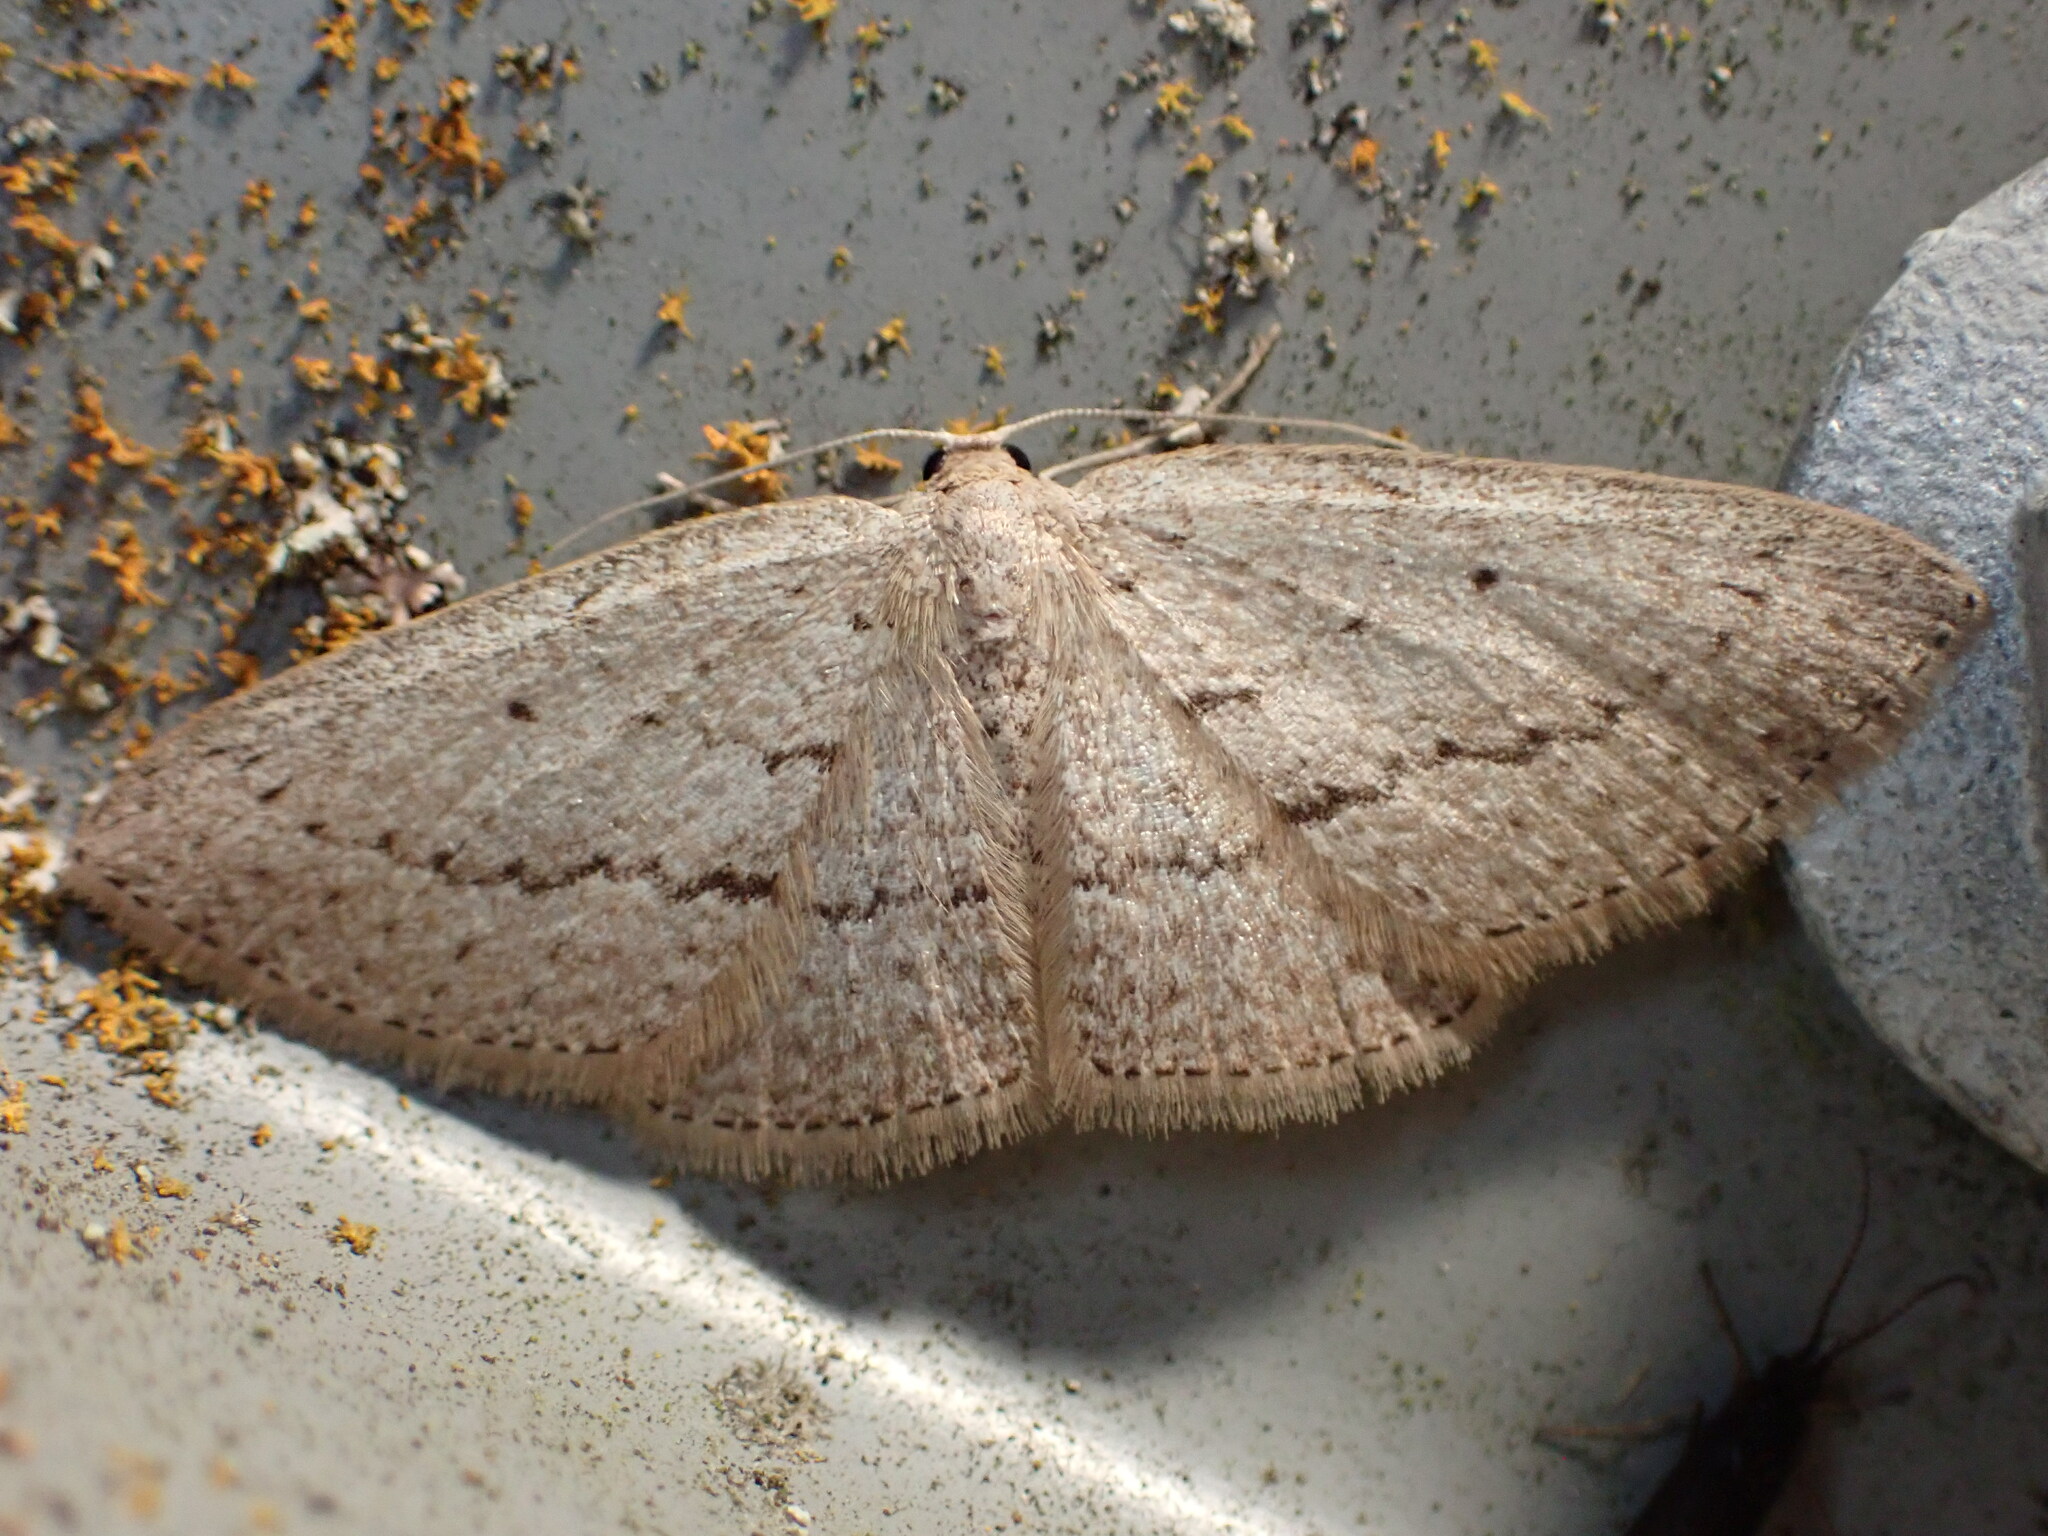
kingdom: Animalia
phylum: Arthropoda
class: Insecta
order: Lepidoptera
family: Geometridae
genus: Poecilasthena
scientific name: Poecilasthena schistaria
